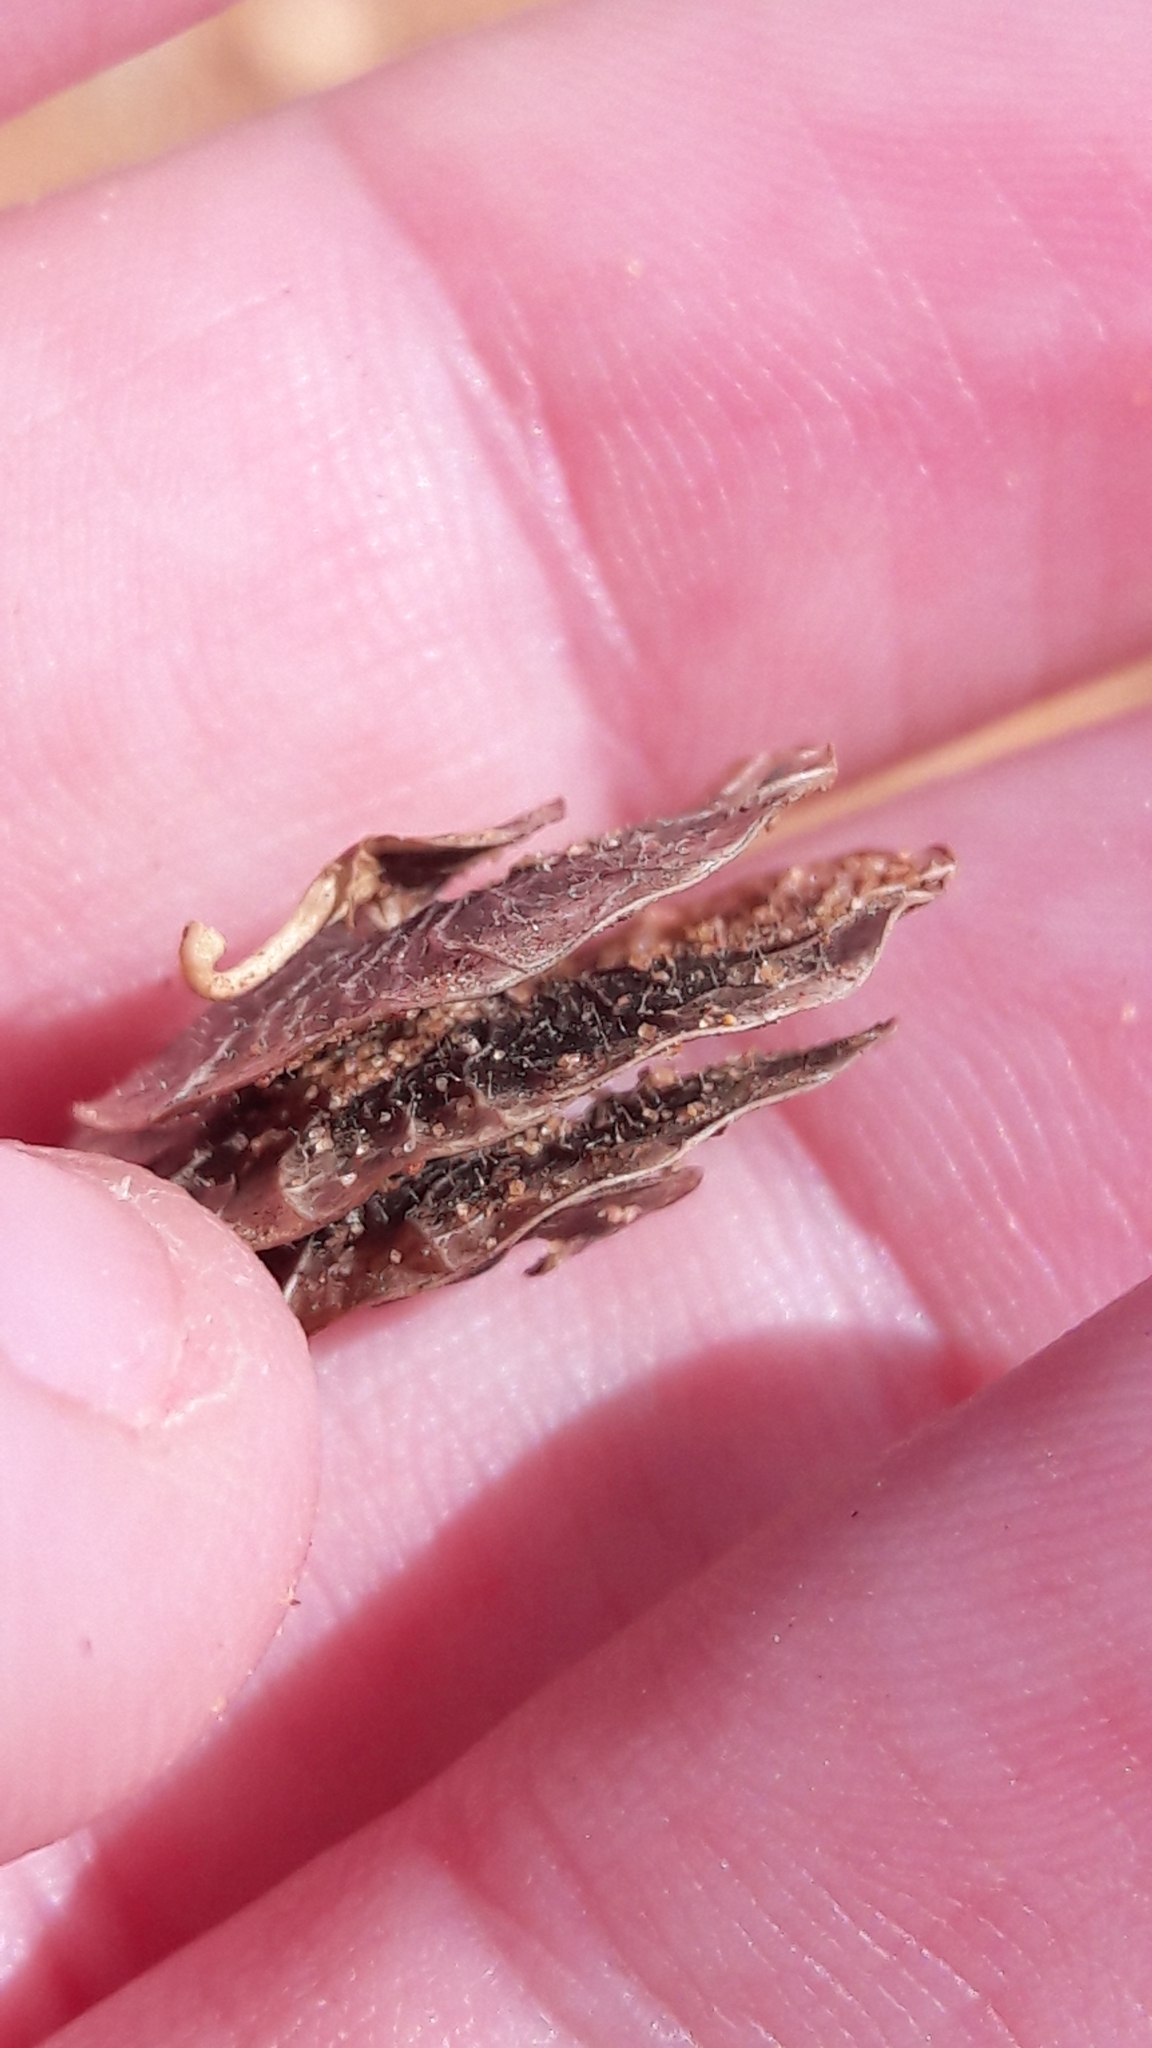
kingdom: Plantae
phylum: Tracheophyta
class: Magnoliopsida
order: Fabales
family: Fabaceae
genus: Medicago
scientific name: Medicago orbicularis
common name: Button medick
